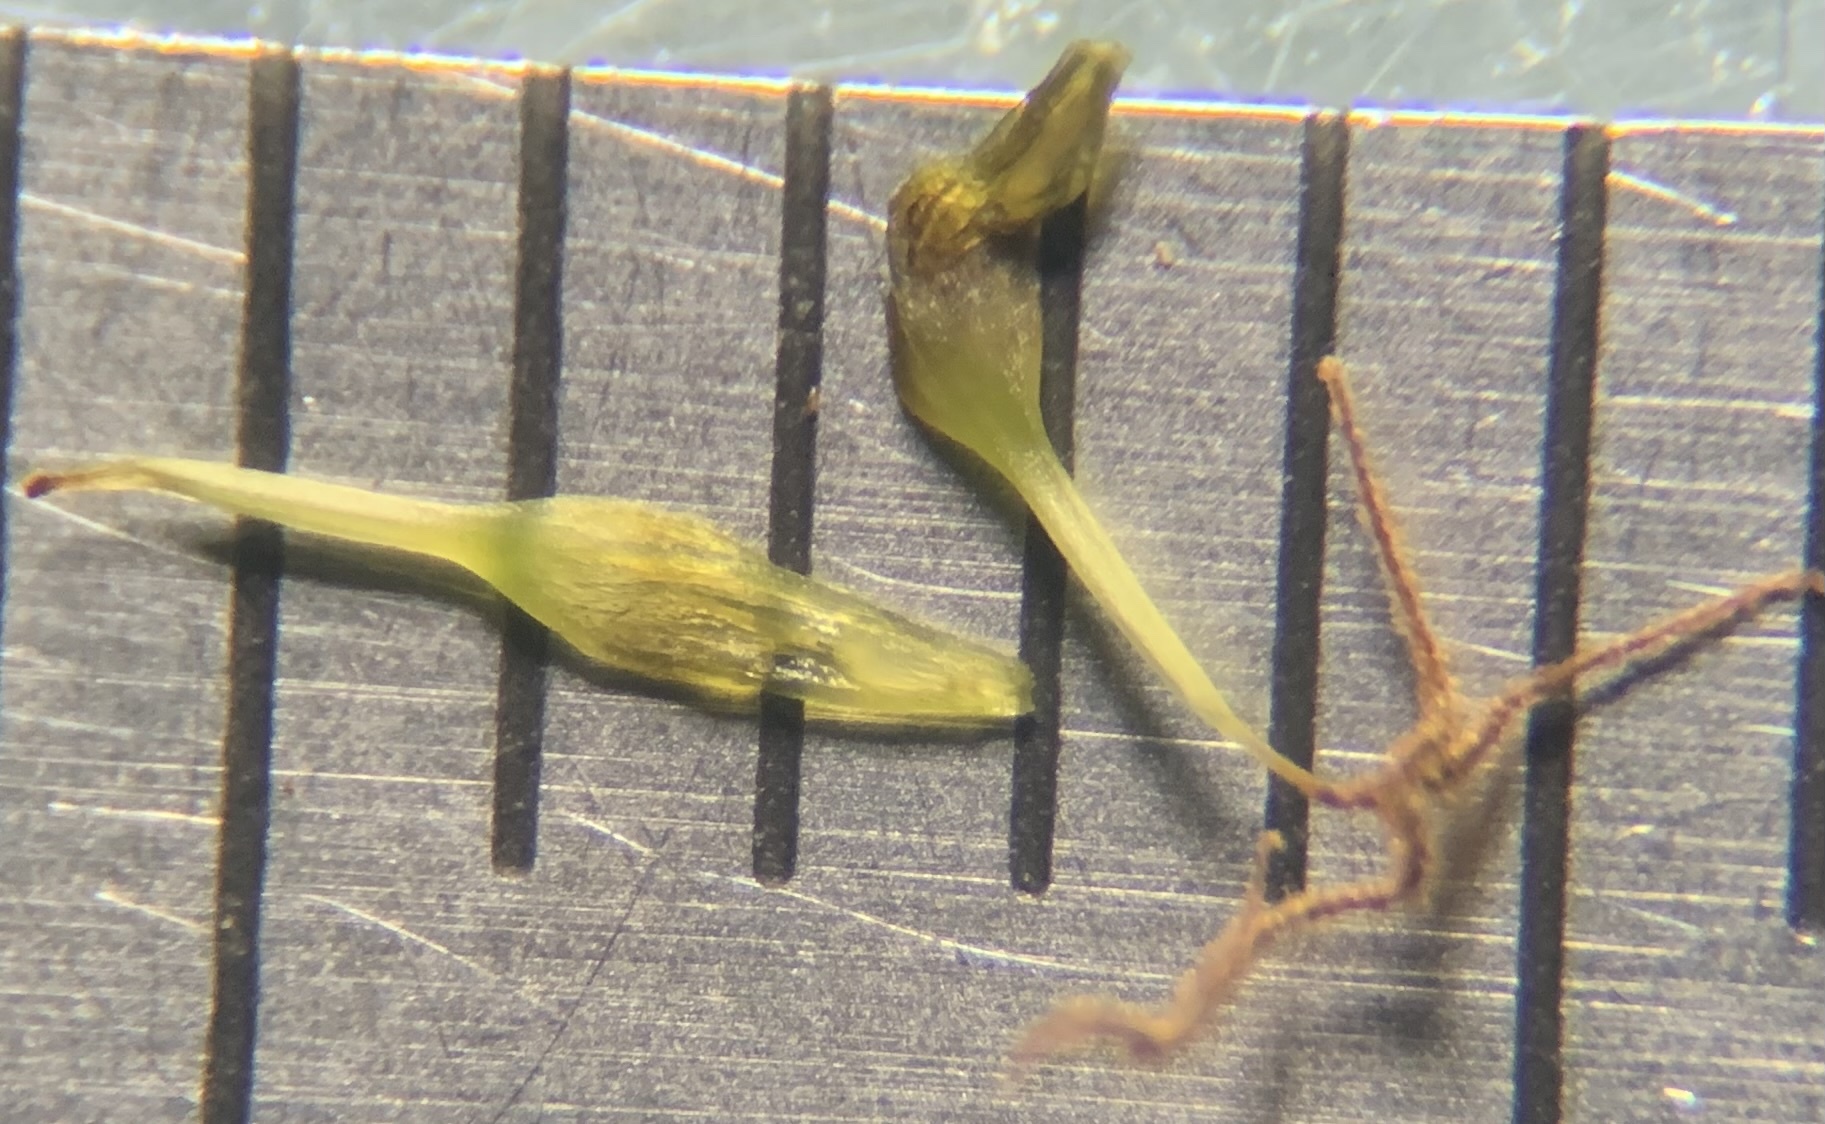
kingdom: Plantae
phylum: Tracheophyta
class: Liliopsida
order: Poales
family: Cyperaceae
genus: Carex
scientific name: Carex verrucosa
